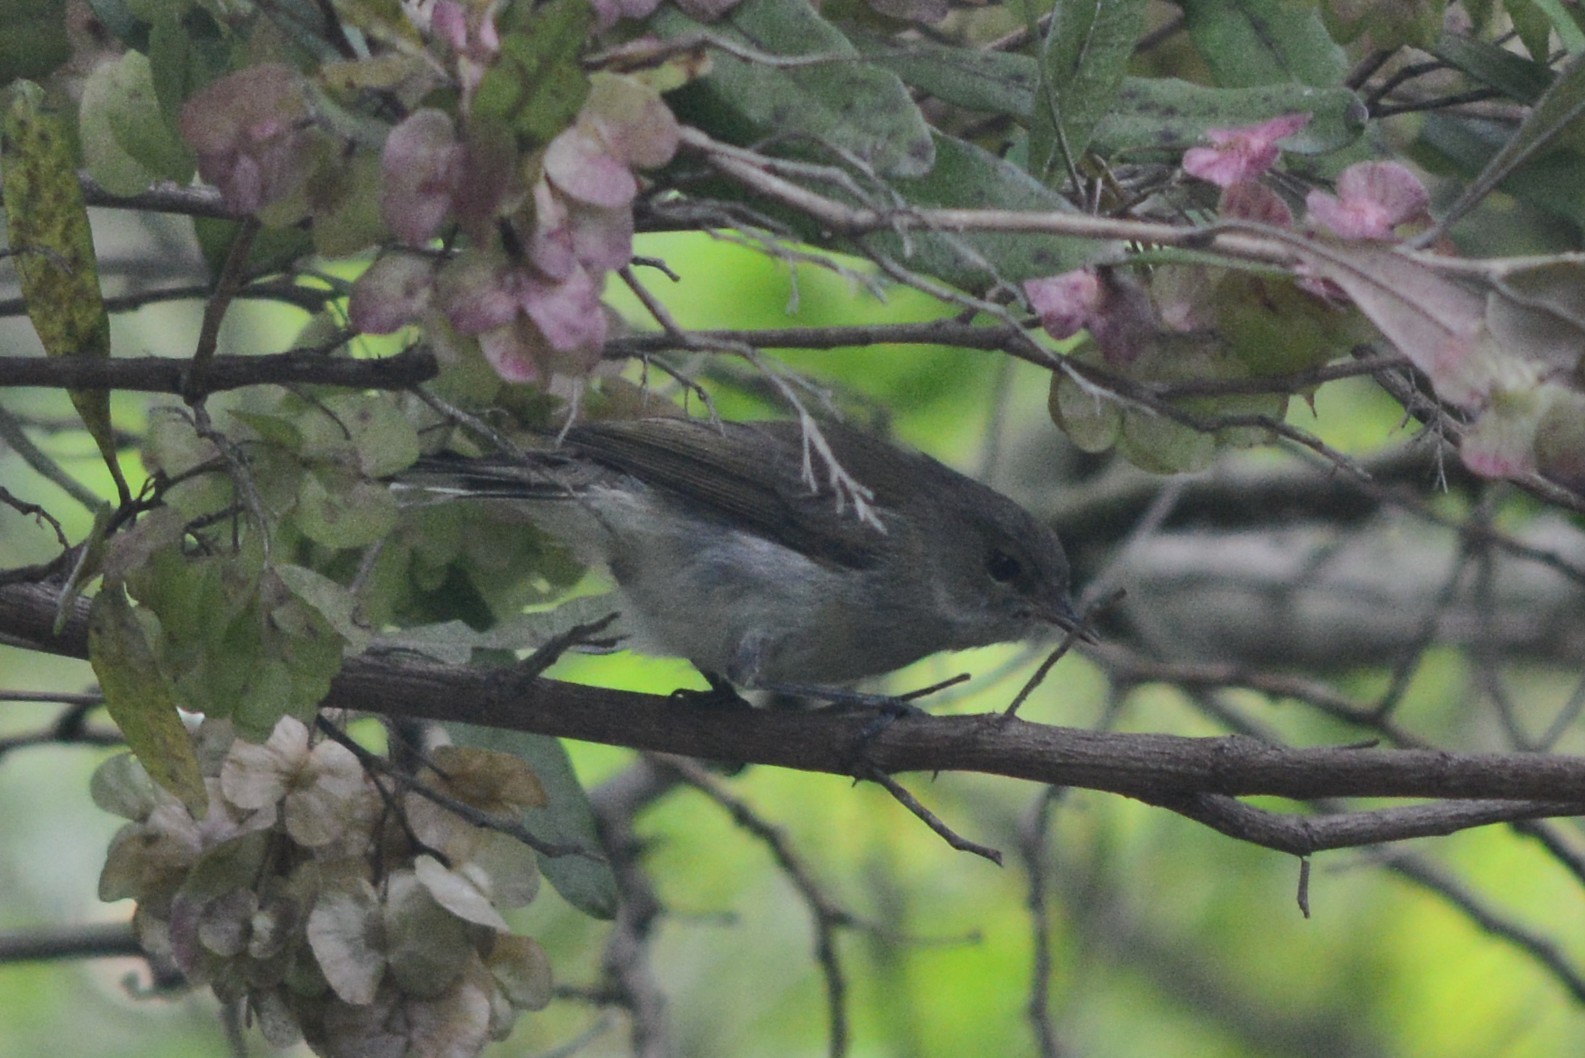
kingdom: Animalia
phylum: Chordata
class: Aves
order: Passeriformes
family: Acanthizidae
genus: Gerygone
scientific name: Gerygone igata
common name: Grey gerygone
